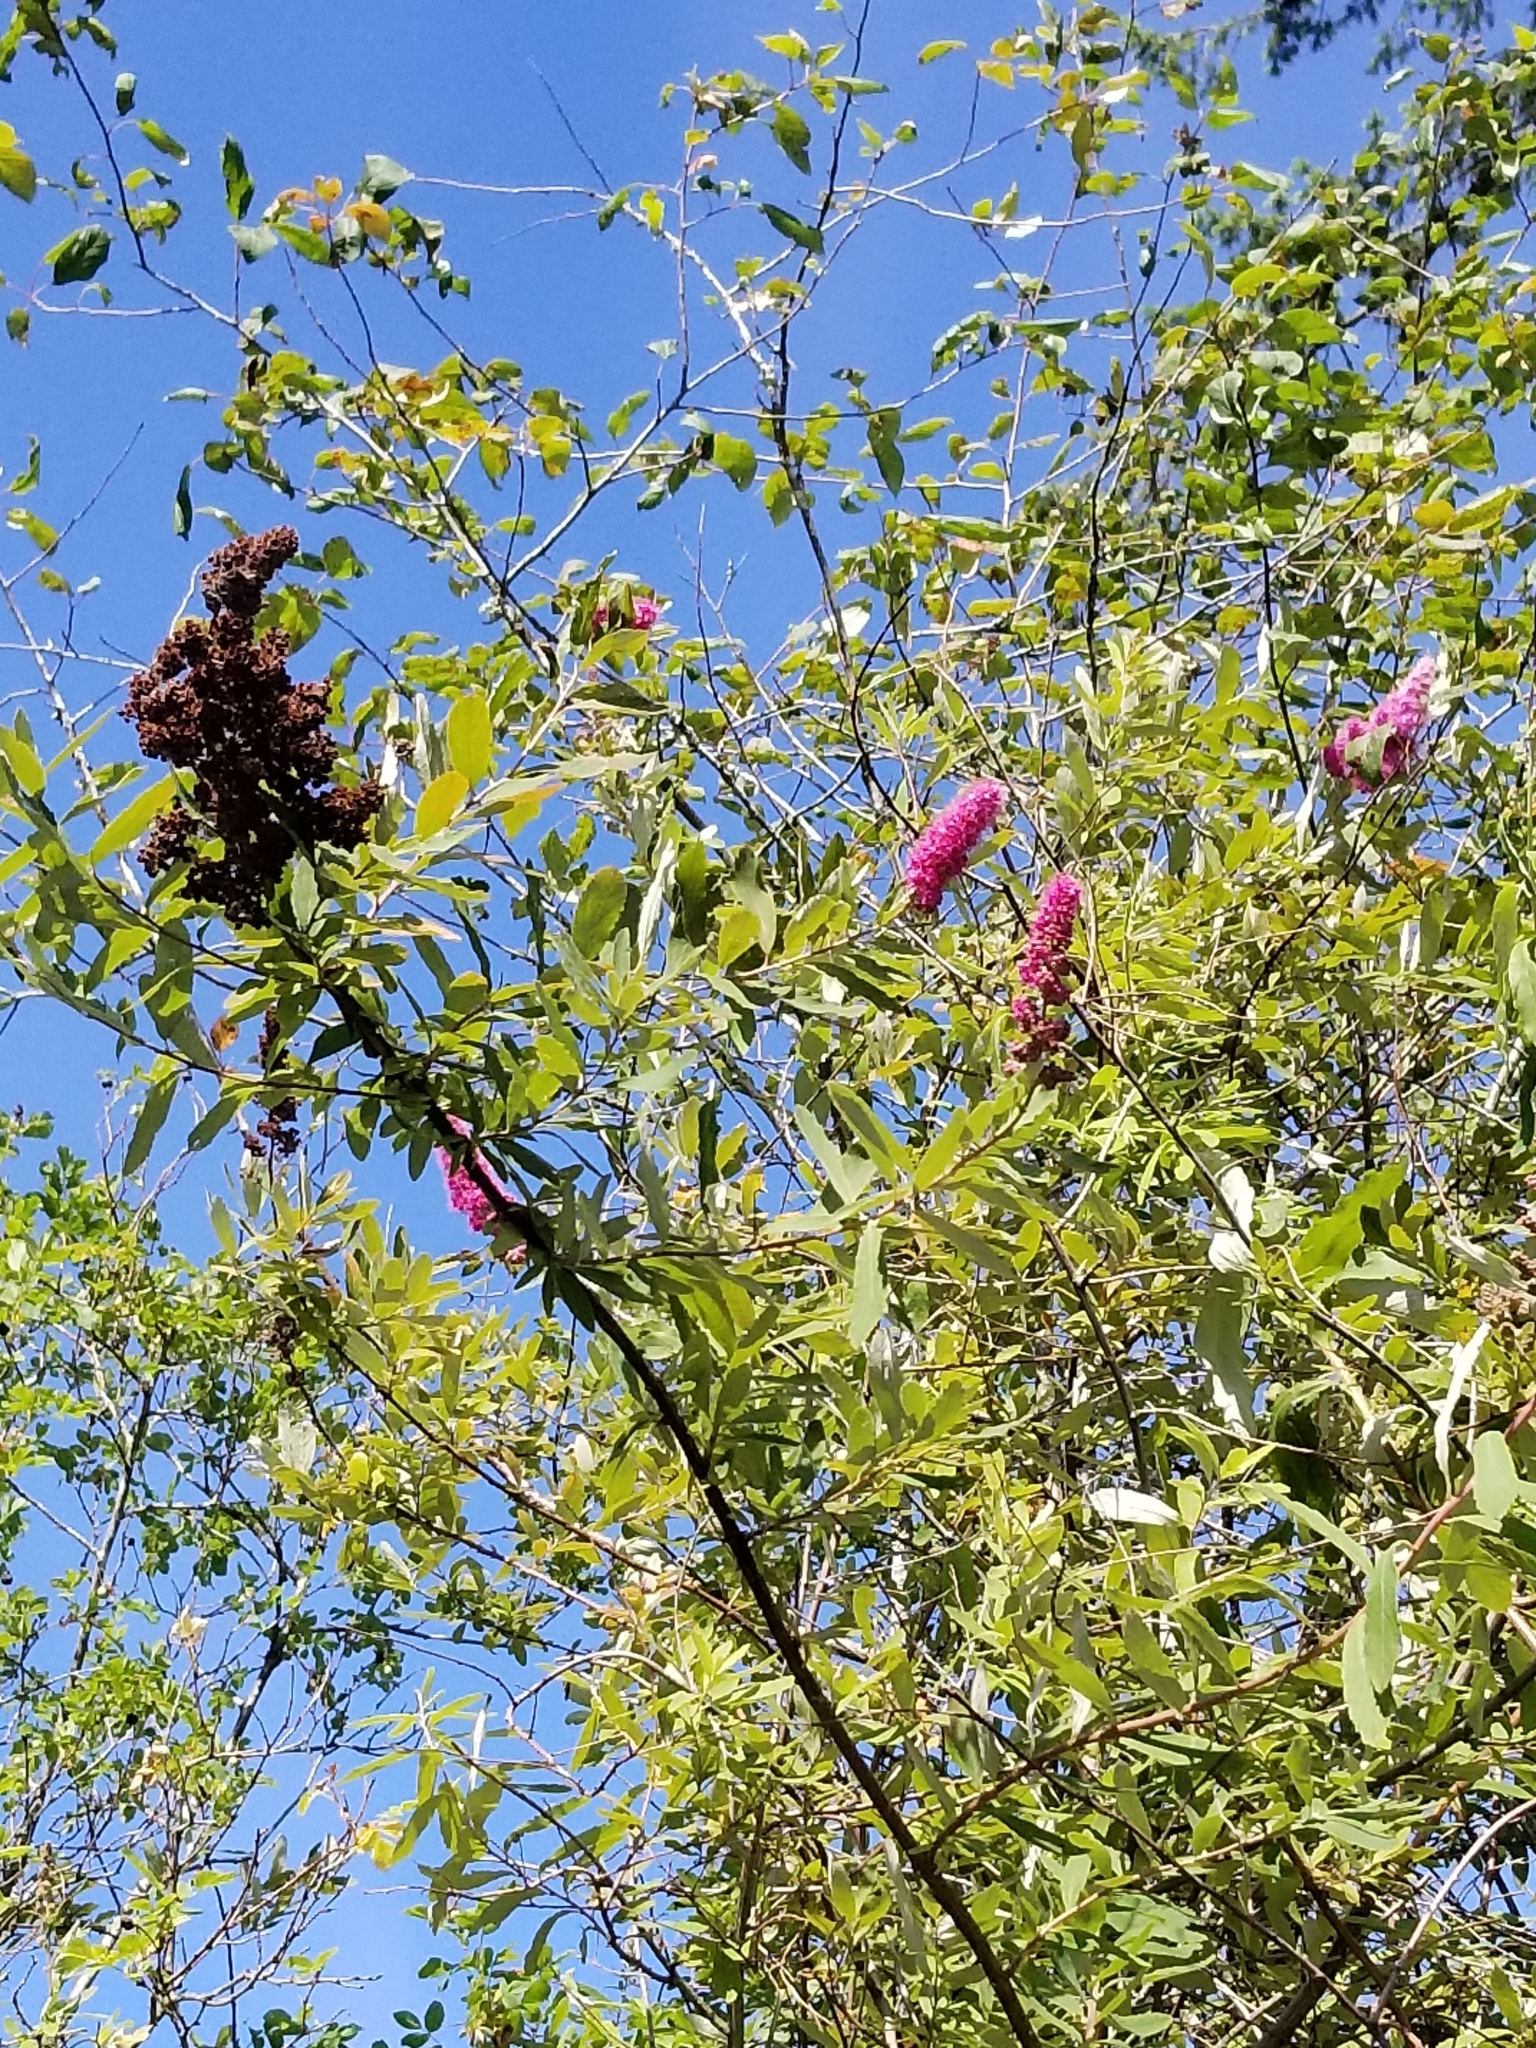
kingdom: Plantae
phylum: Tracheophyta
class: Magnoliopsida
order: Rosales
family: Rosaceae
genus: Spiraea
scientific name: Spiraea douglasii
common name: Steeplebush
